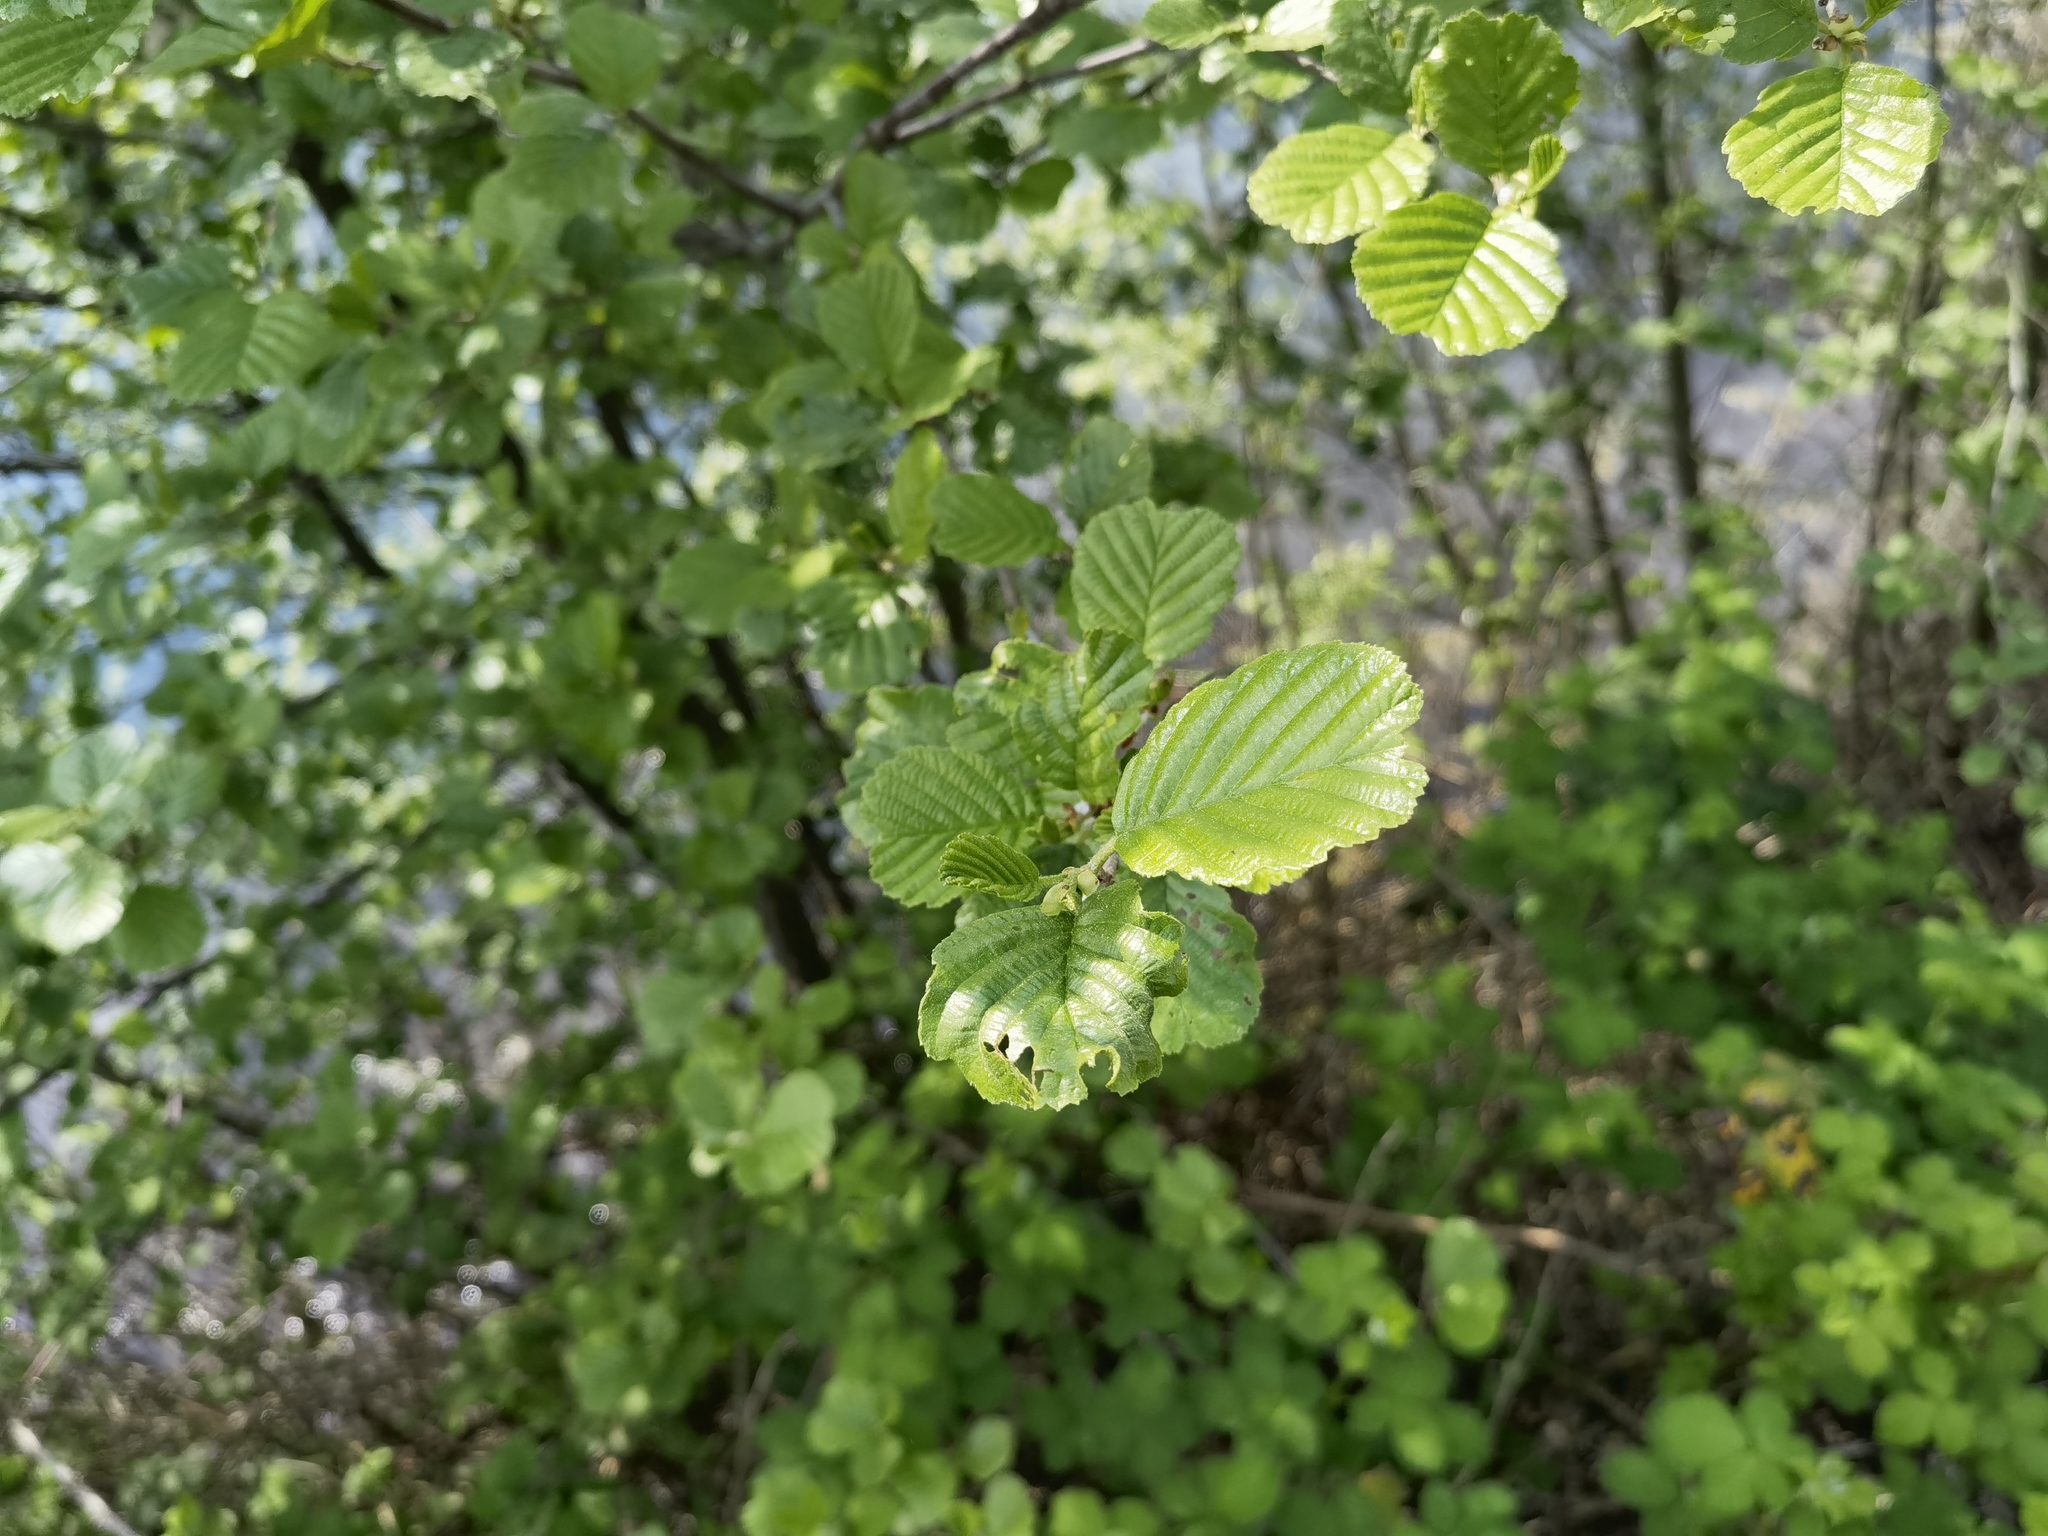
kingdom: Plantae
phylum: Tracheophyta
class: Magnoliopsida
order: Fagales
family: Betulaceae
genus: Alnus
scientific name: Alnus glutinosa
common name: Black alder
